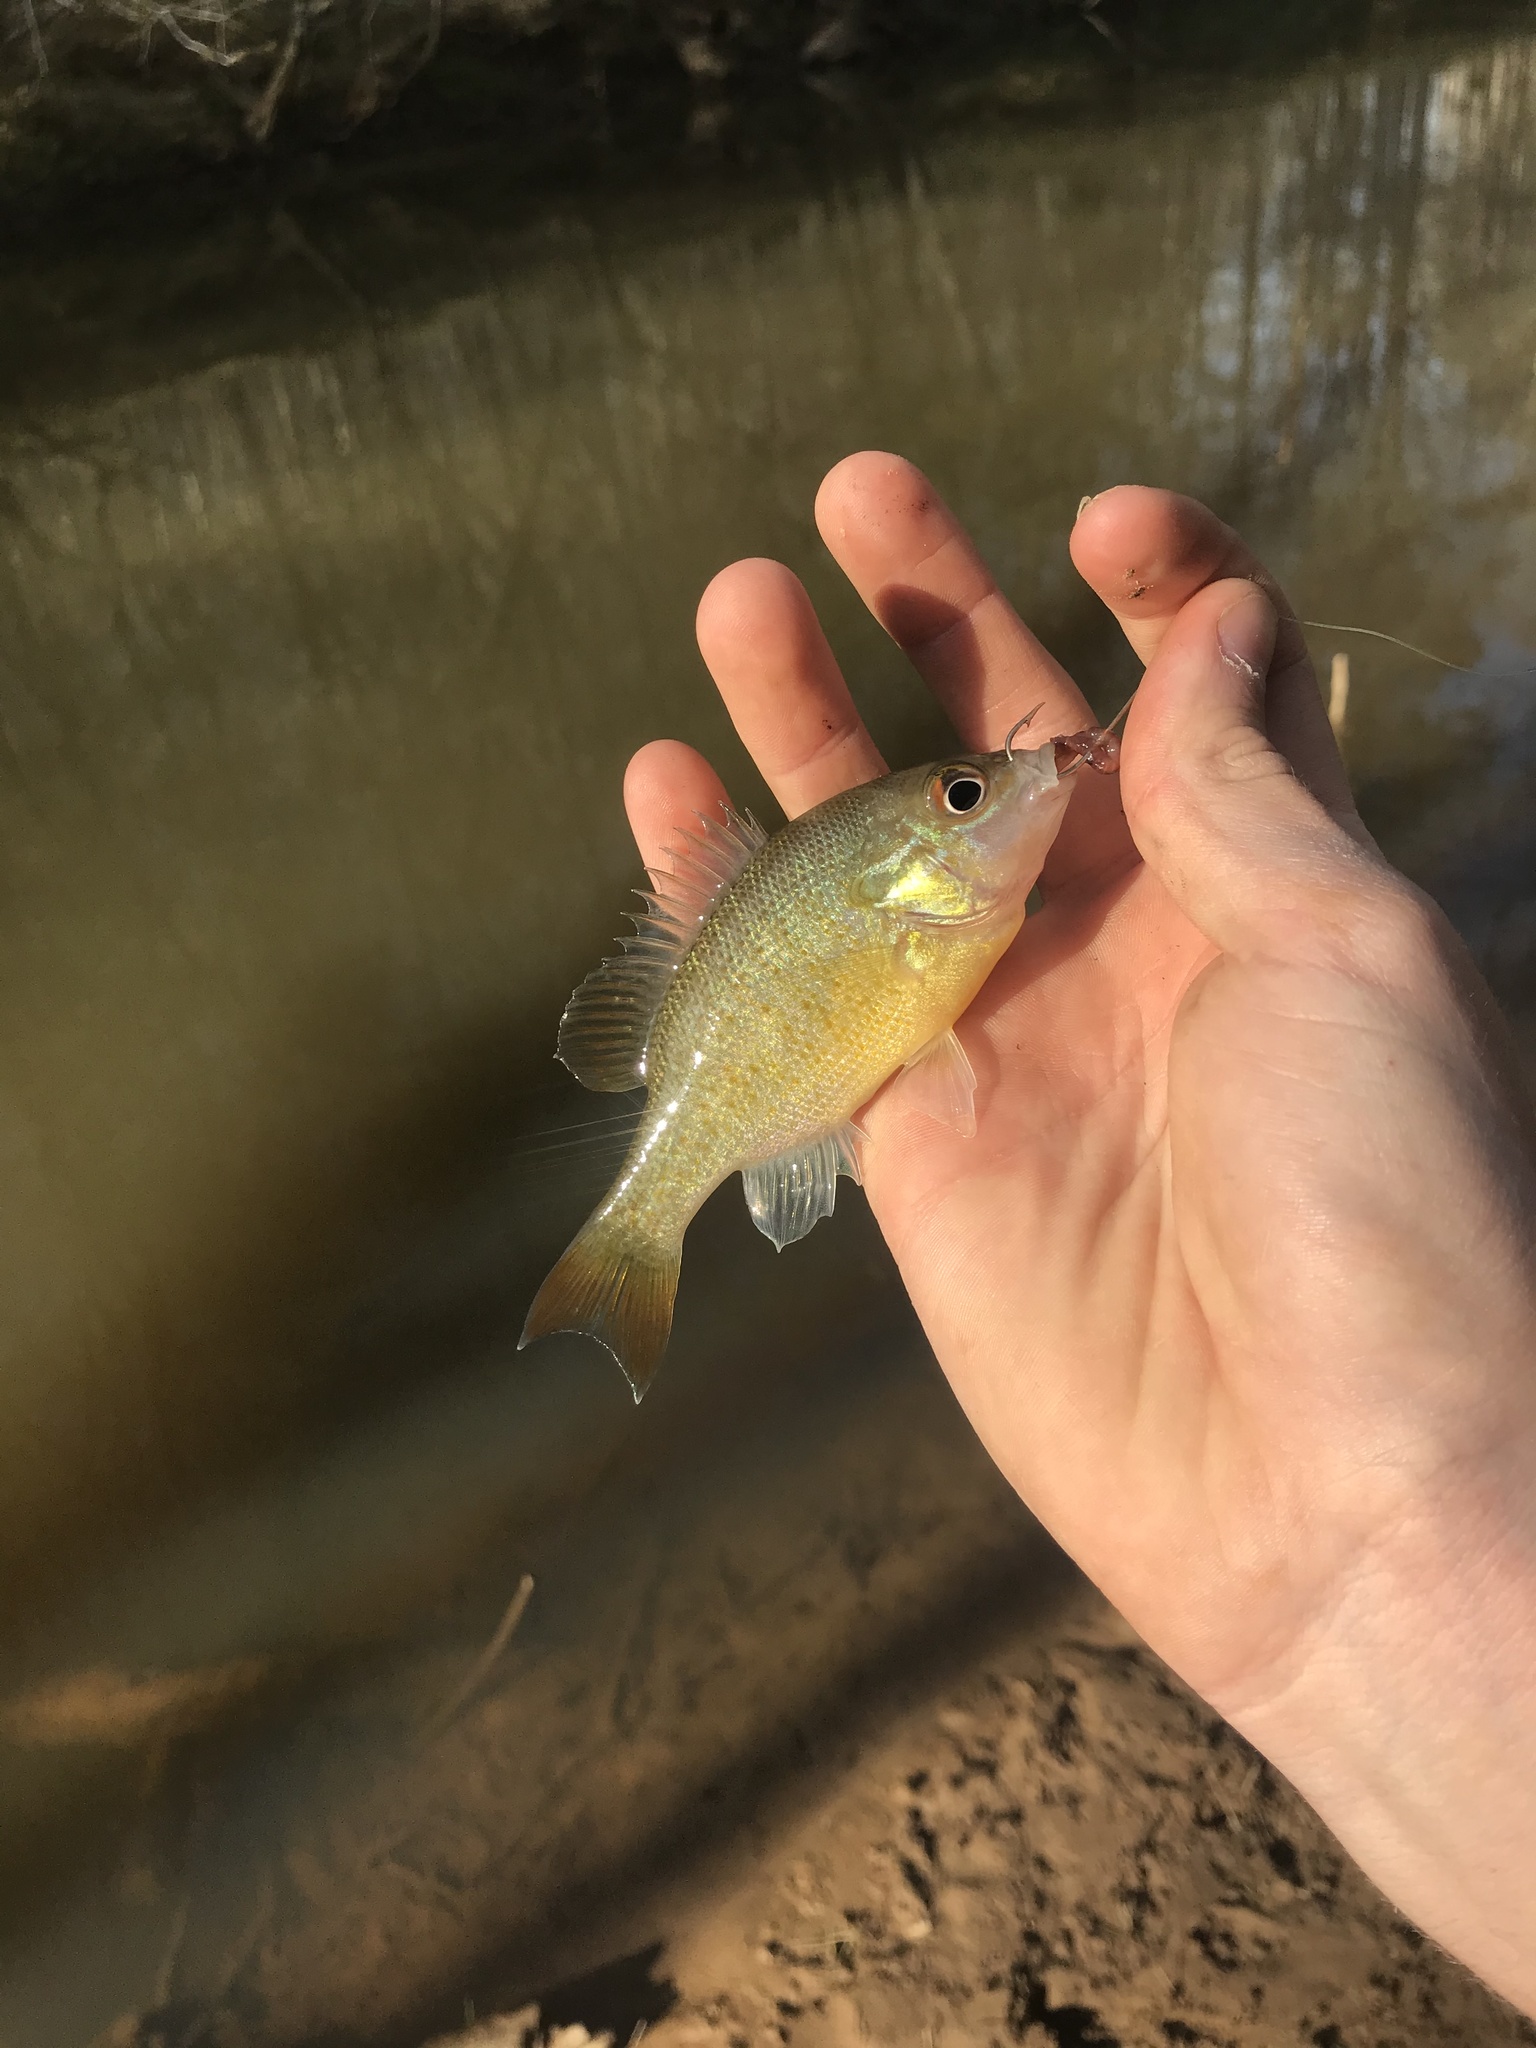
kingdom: Animalia
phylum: Chordata
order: Perciformes
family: Centrarchidae
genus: Lepomis
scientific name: Lepomis auritus
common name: Redbreast sunfish
